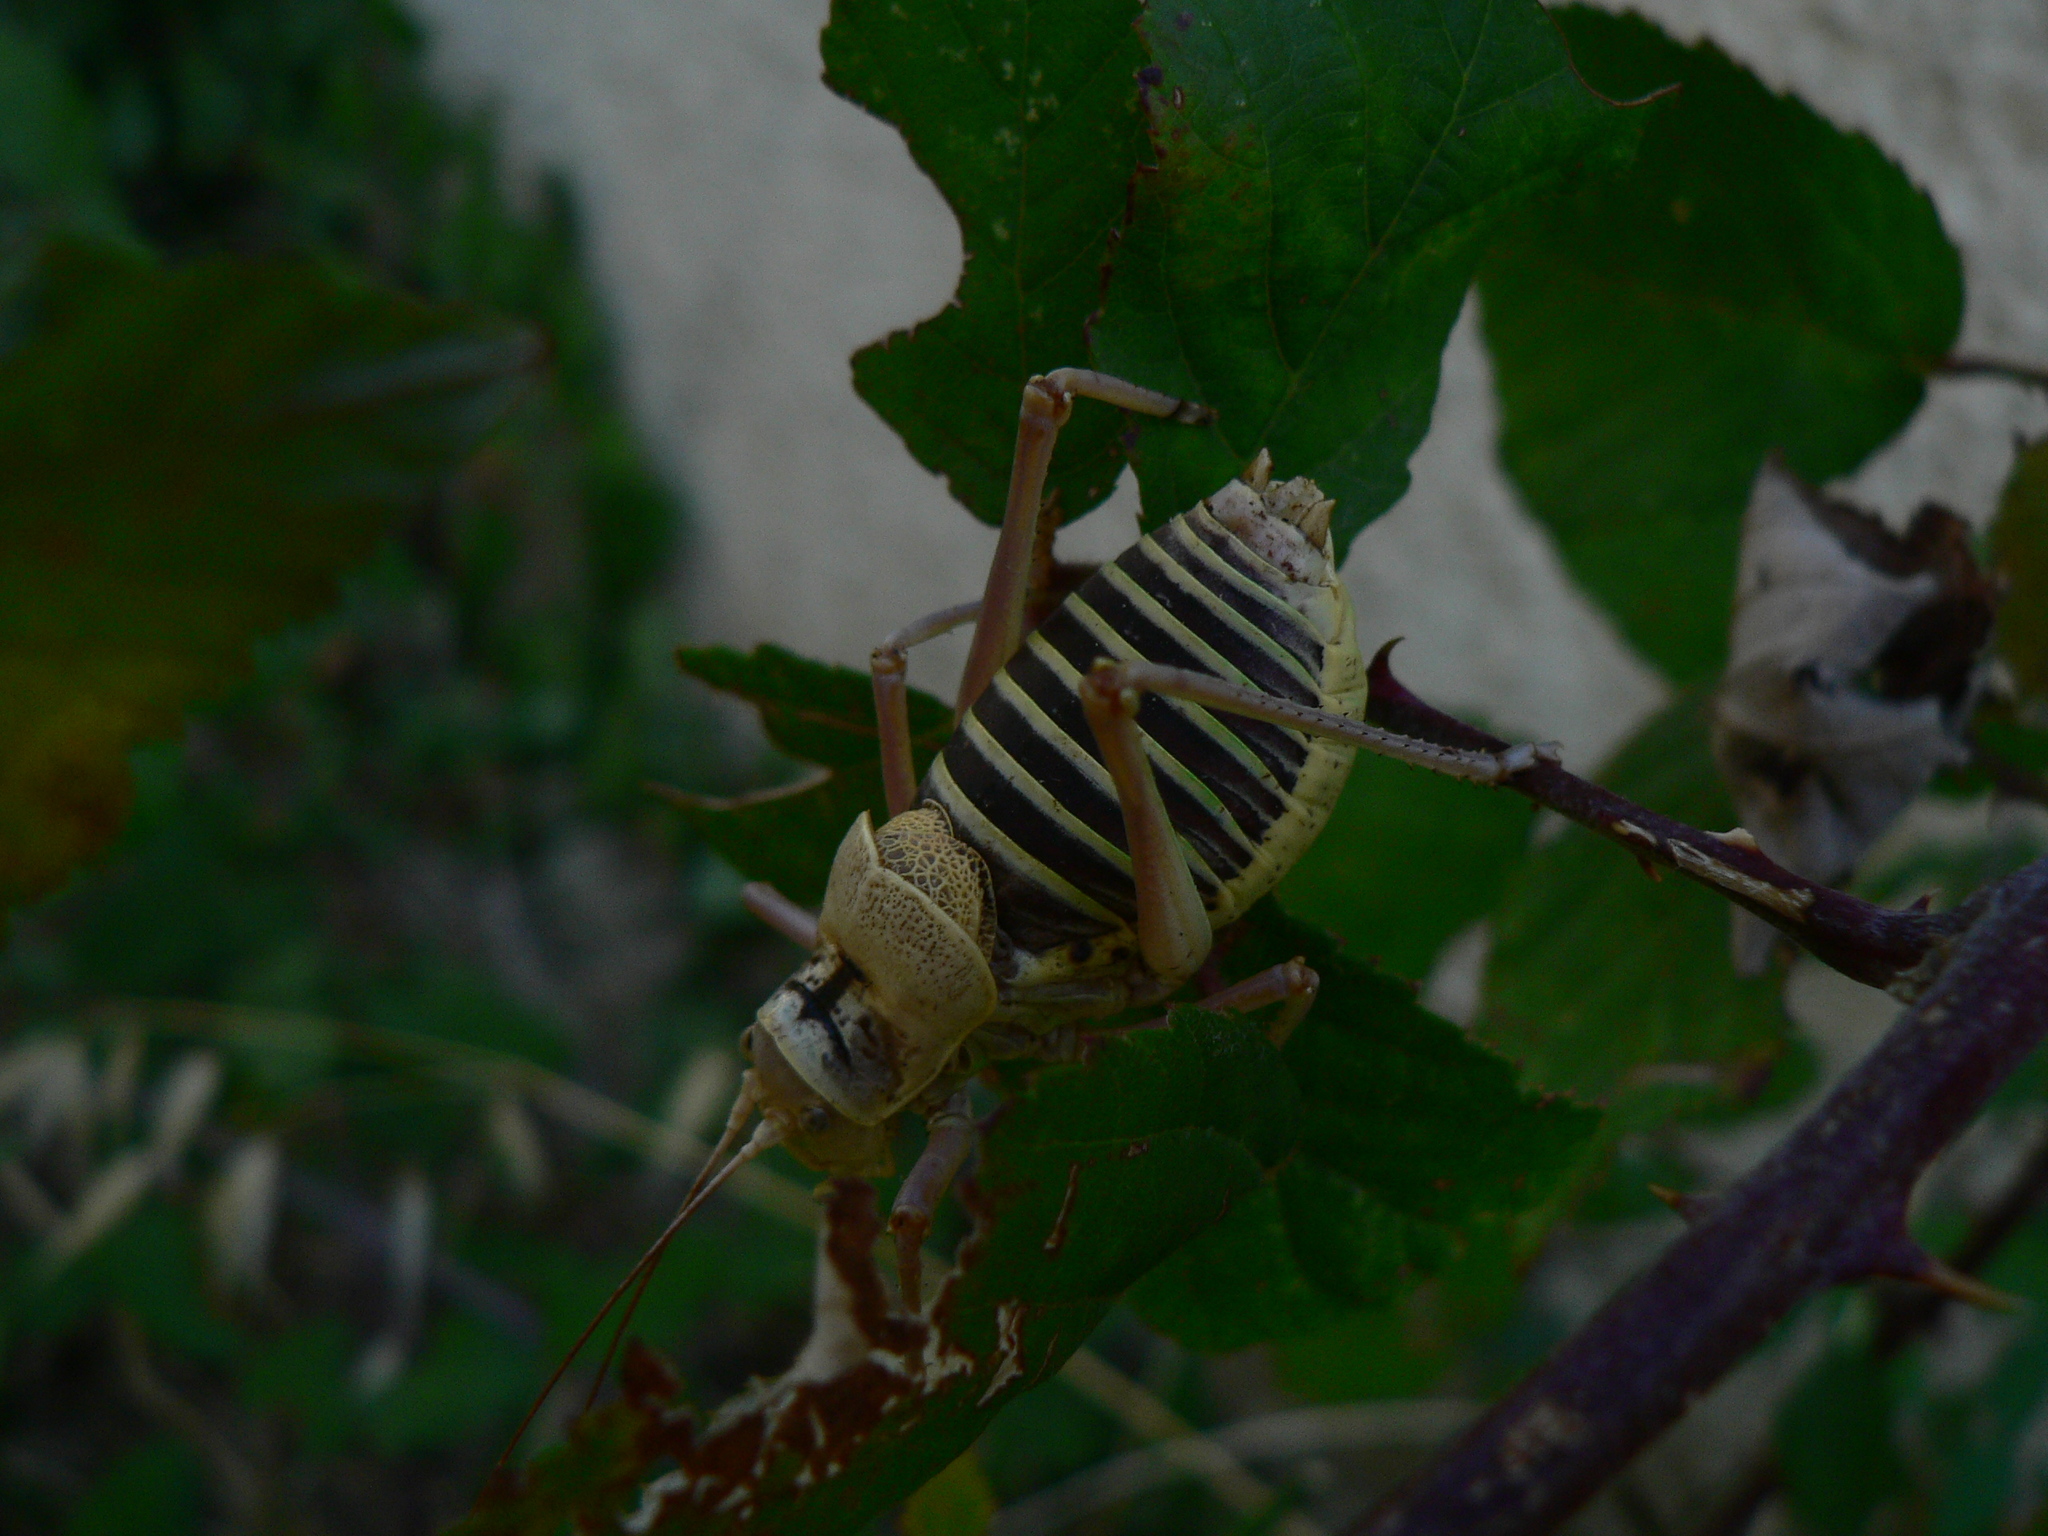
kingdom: Animalia
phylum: Arthropoda
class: Insecta
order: Orthoptera
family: Tettigoniidae
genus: Ephippiger
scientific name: Ephippiger diurnus
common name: Western saddle bush-cricket
